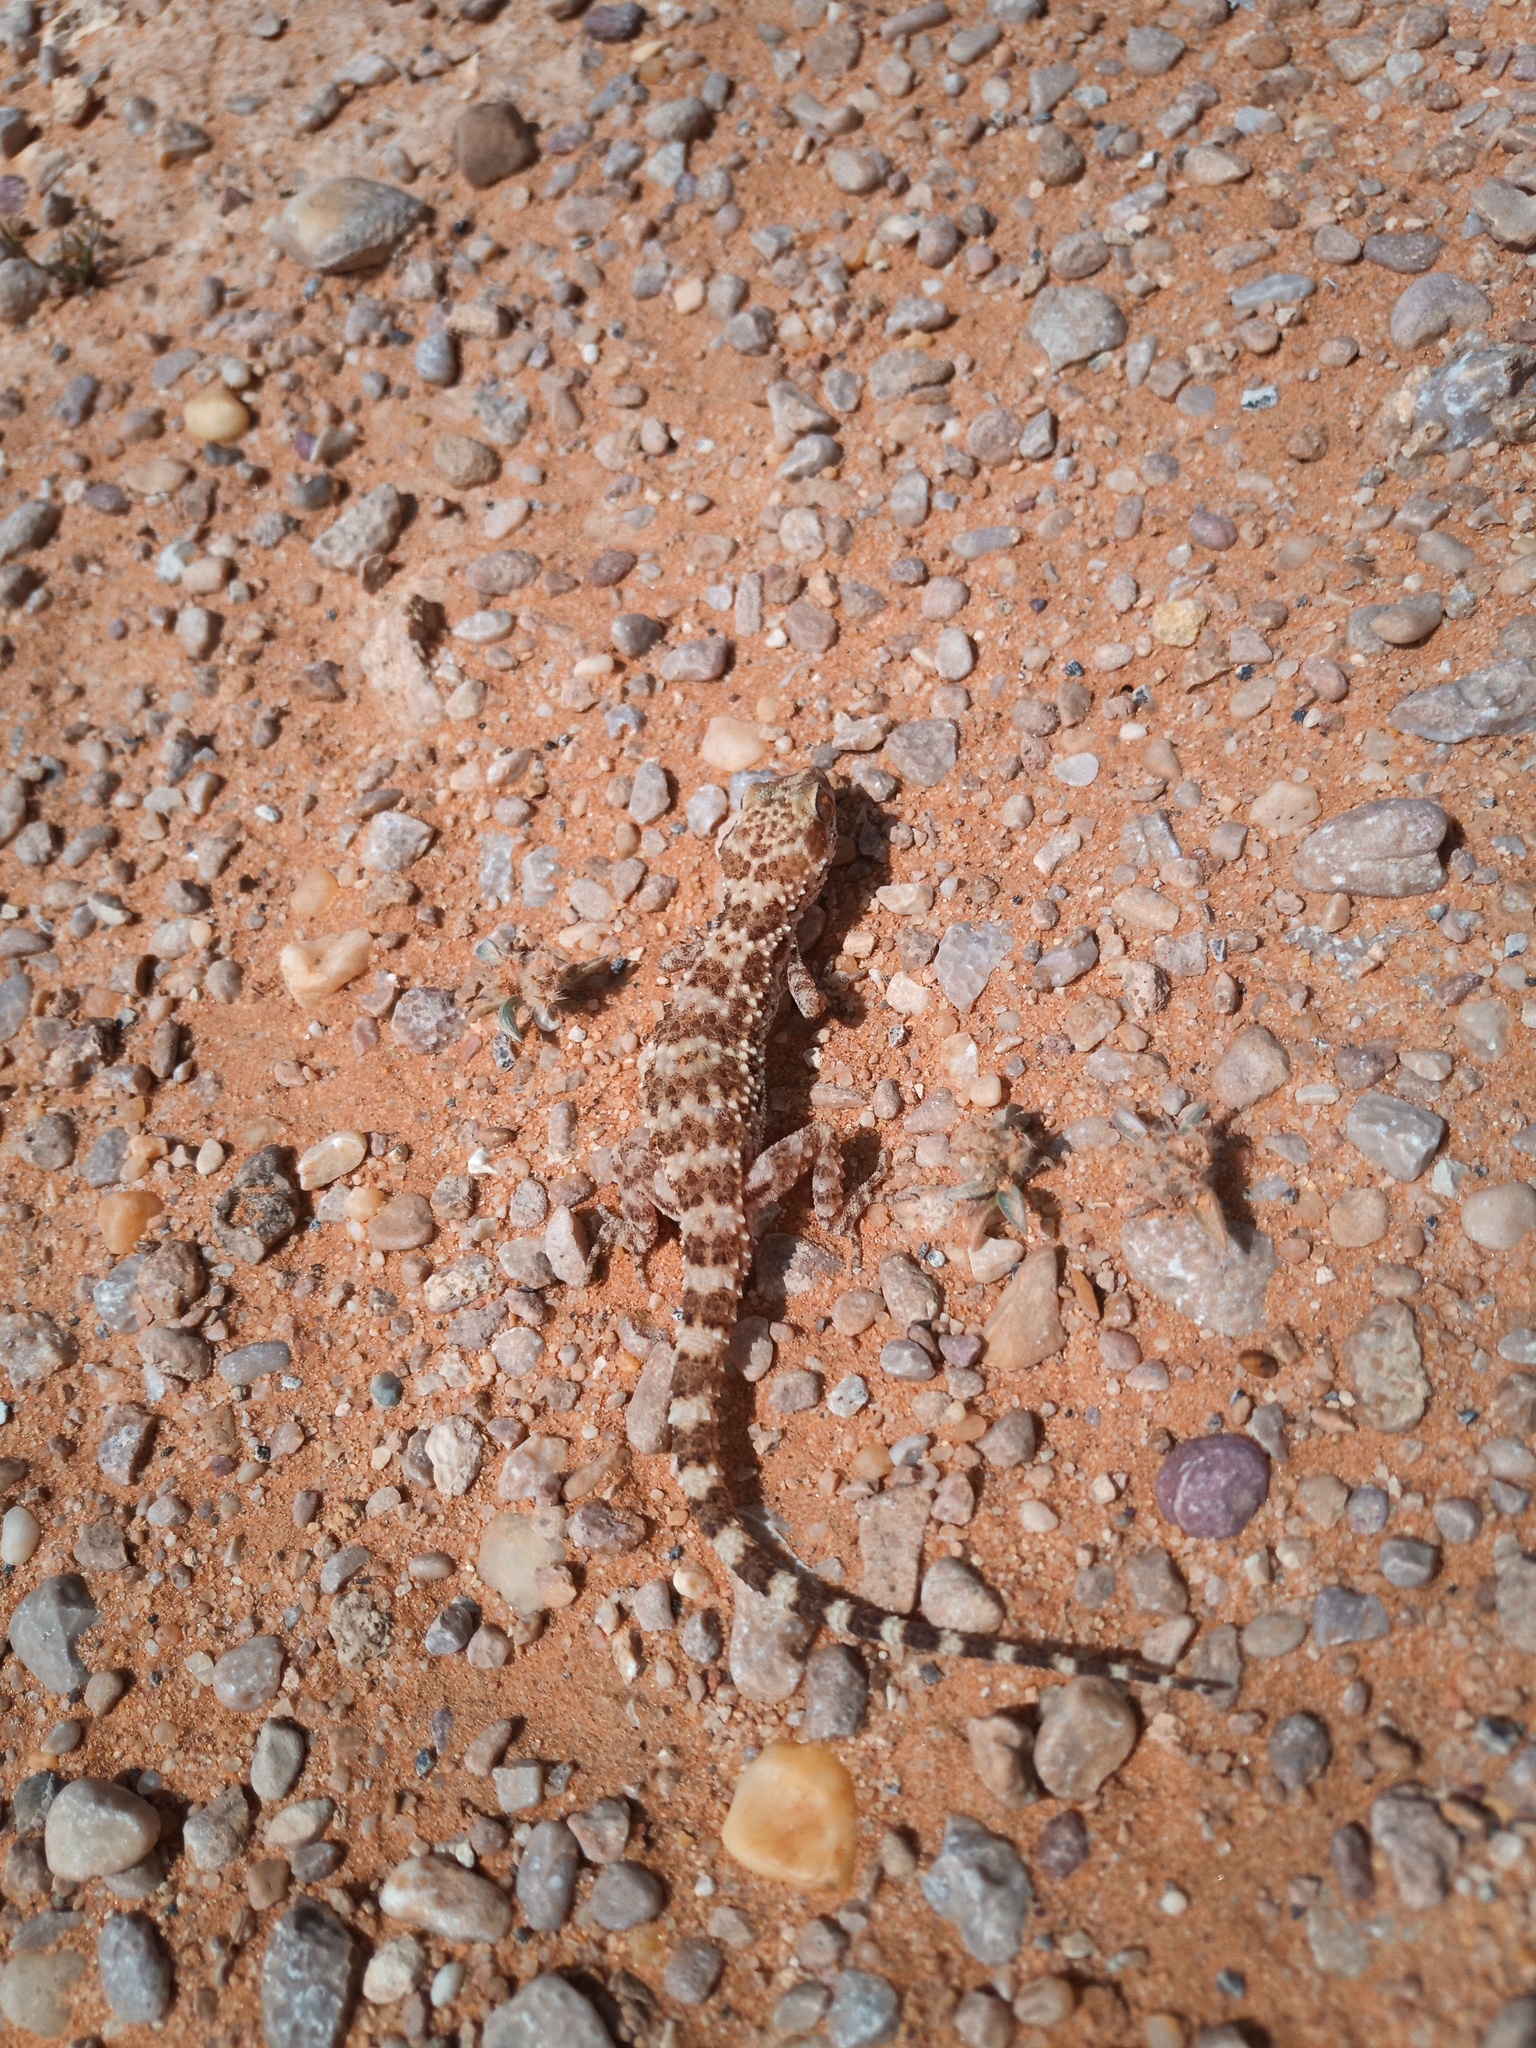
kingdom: Animalia
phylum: Chordata
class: Squamata
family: Gekkonidae
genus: Bunopus
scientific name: Bunopus tuberculatus
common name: Southern tuberculated gecko
